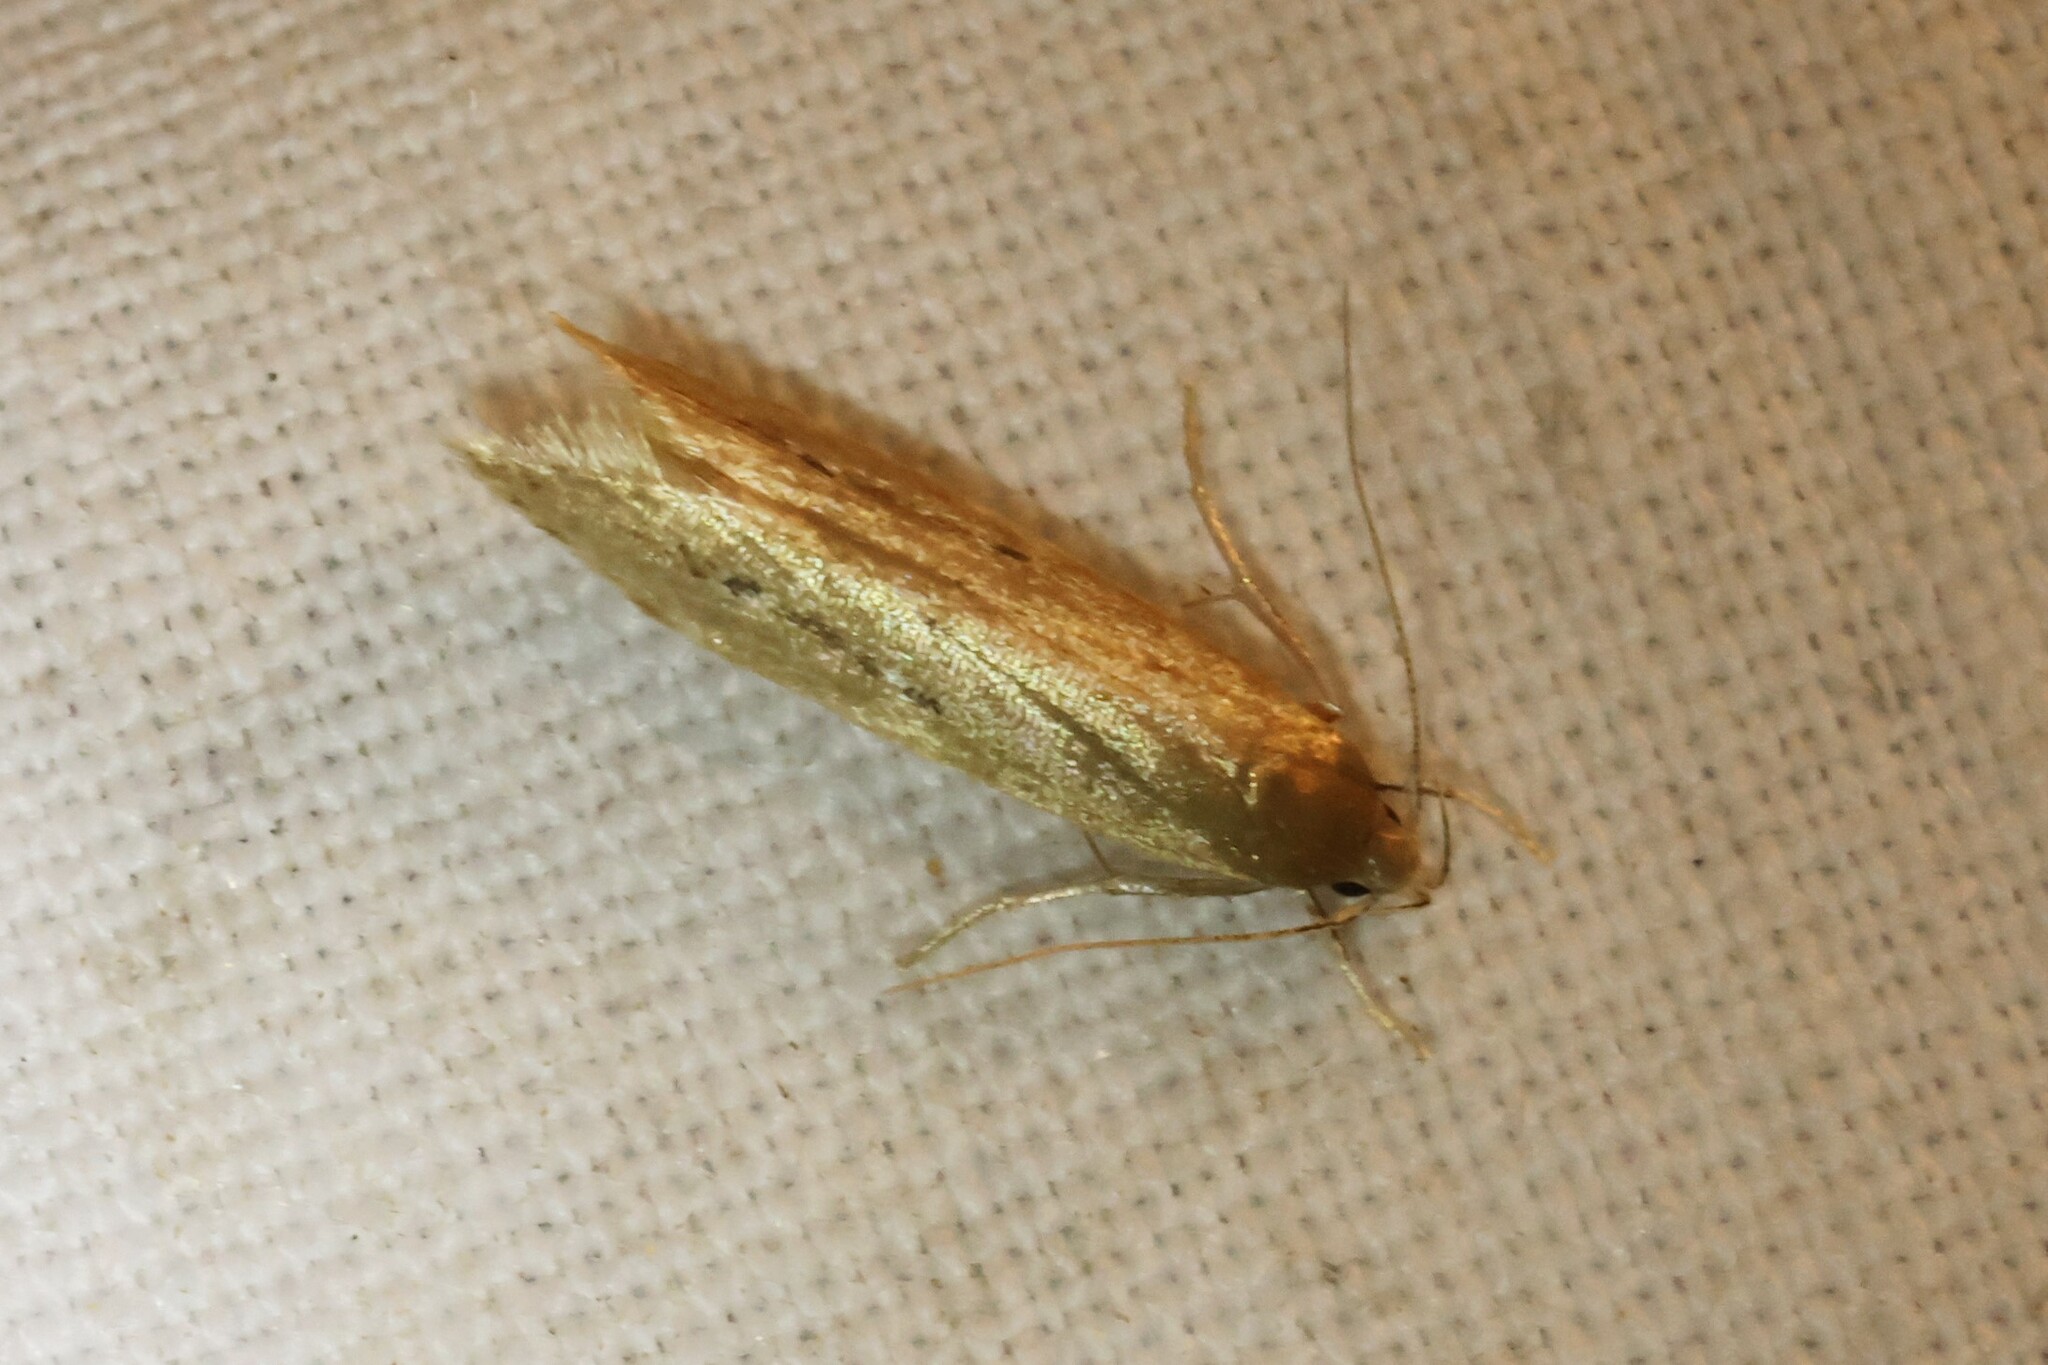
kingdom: Animalia
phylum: Arthropoda
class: Insecta
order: Lepidoptera
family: Cosmopterigidae
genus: Limnaecia
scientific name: Limnaecia phragmitella
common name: Bulrush cosmet
